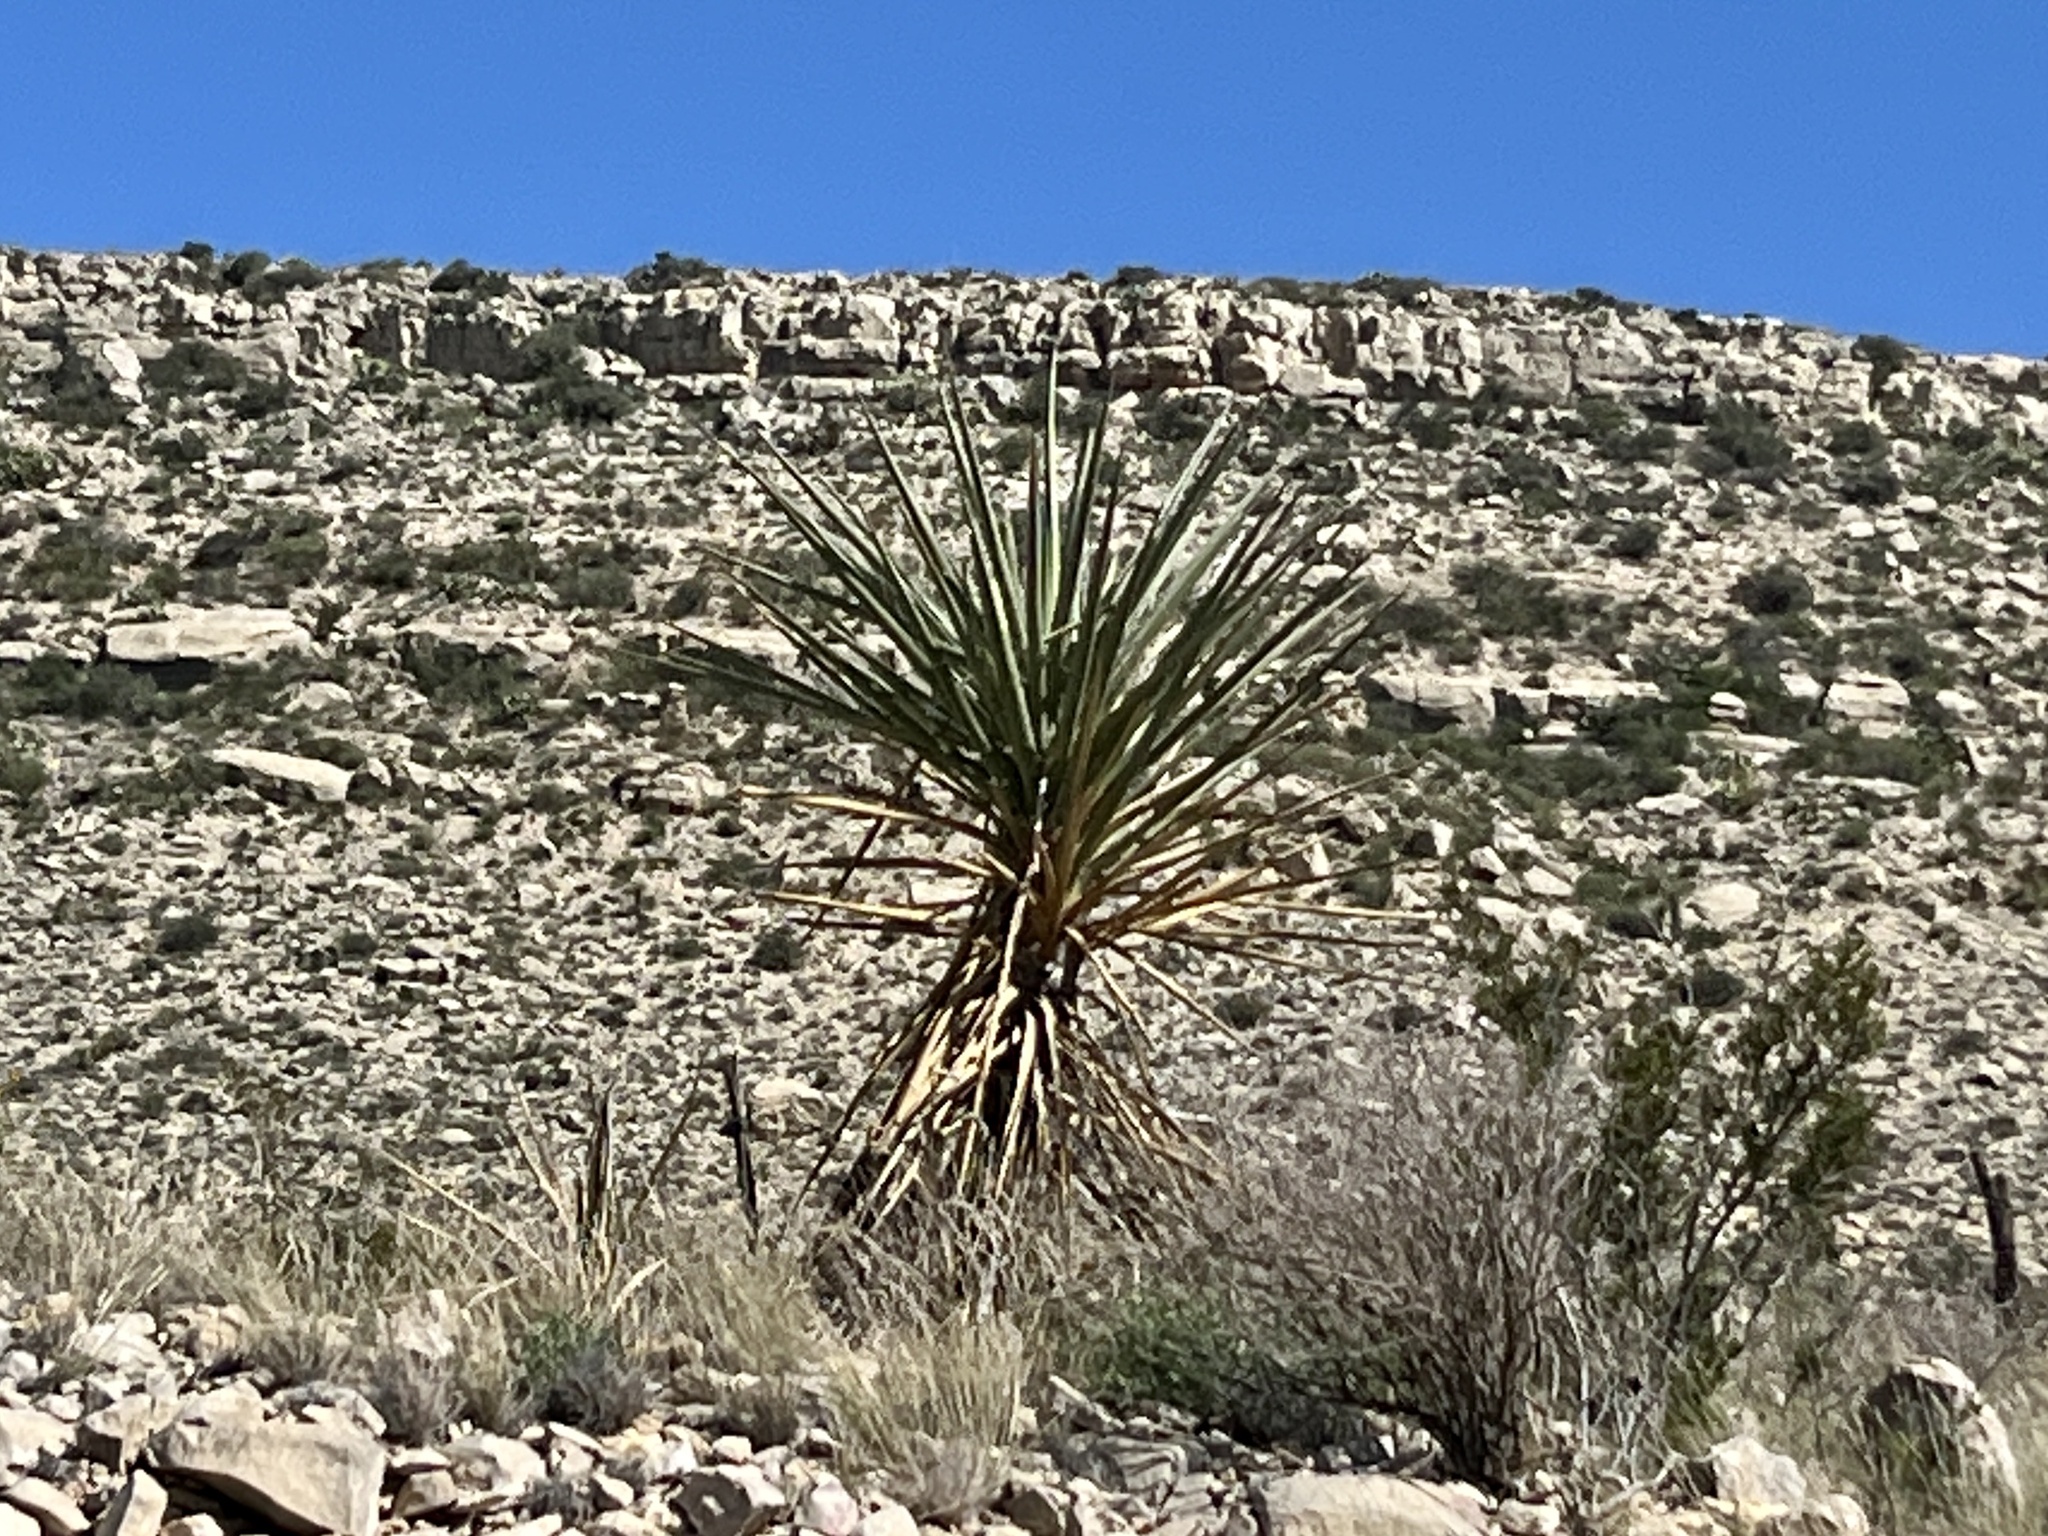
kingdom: Plantae
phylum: Tracheophyta
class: Liliopsida
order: Asparagales
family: Asparagaceae
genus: Yucca
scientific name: Yucca treculiana
